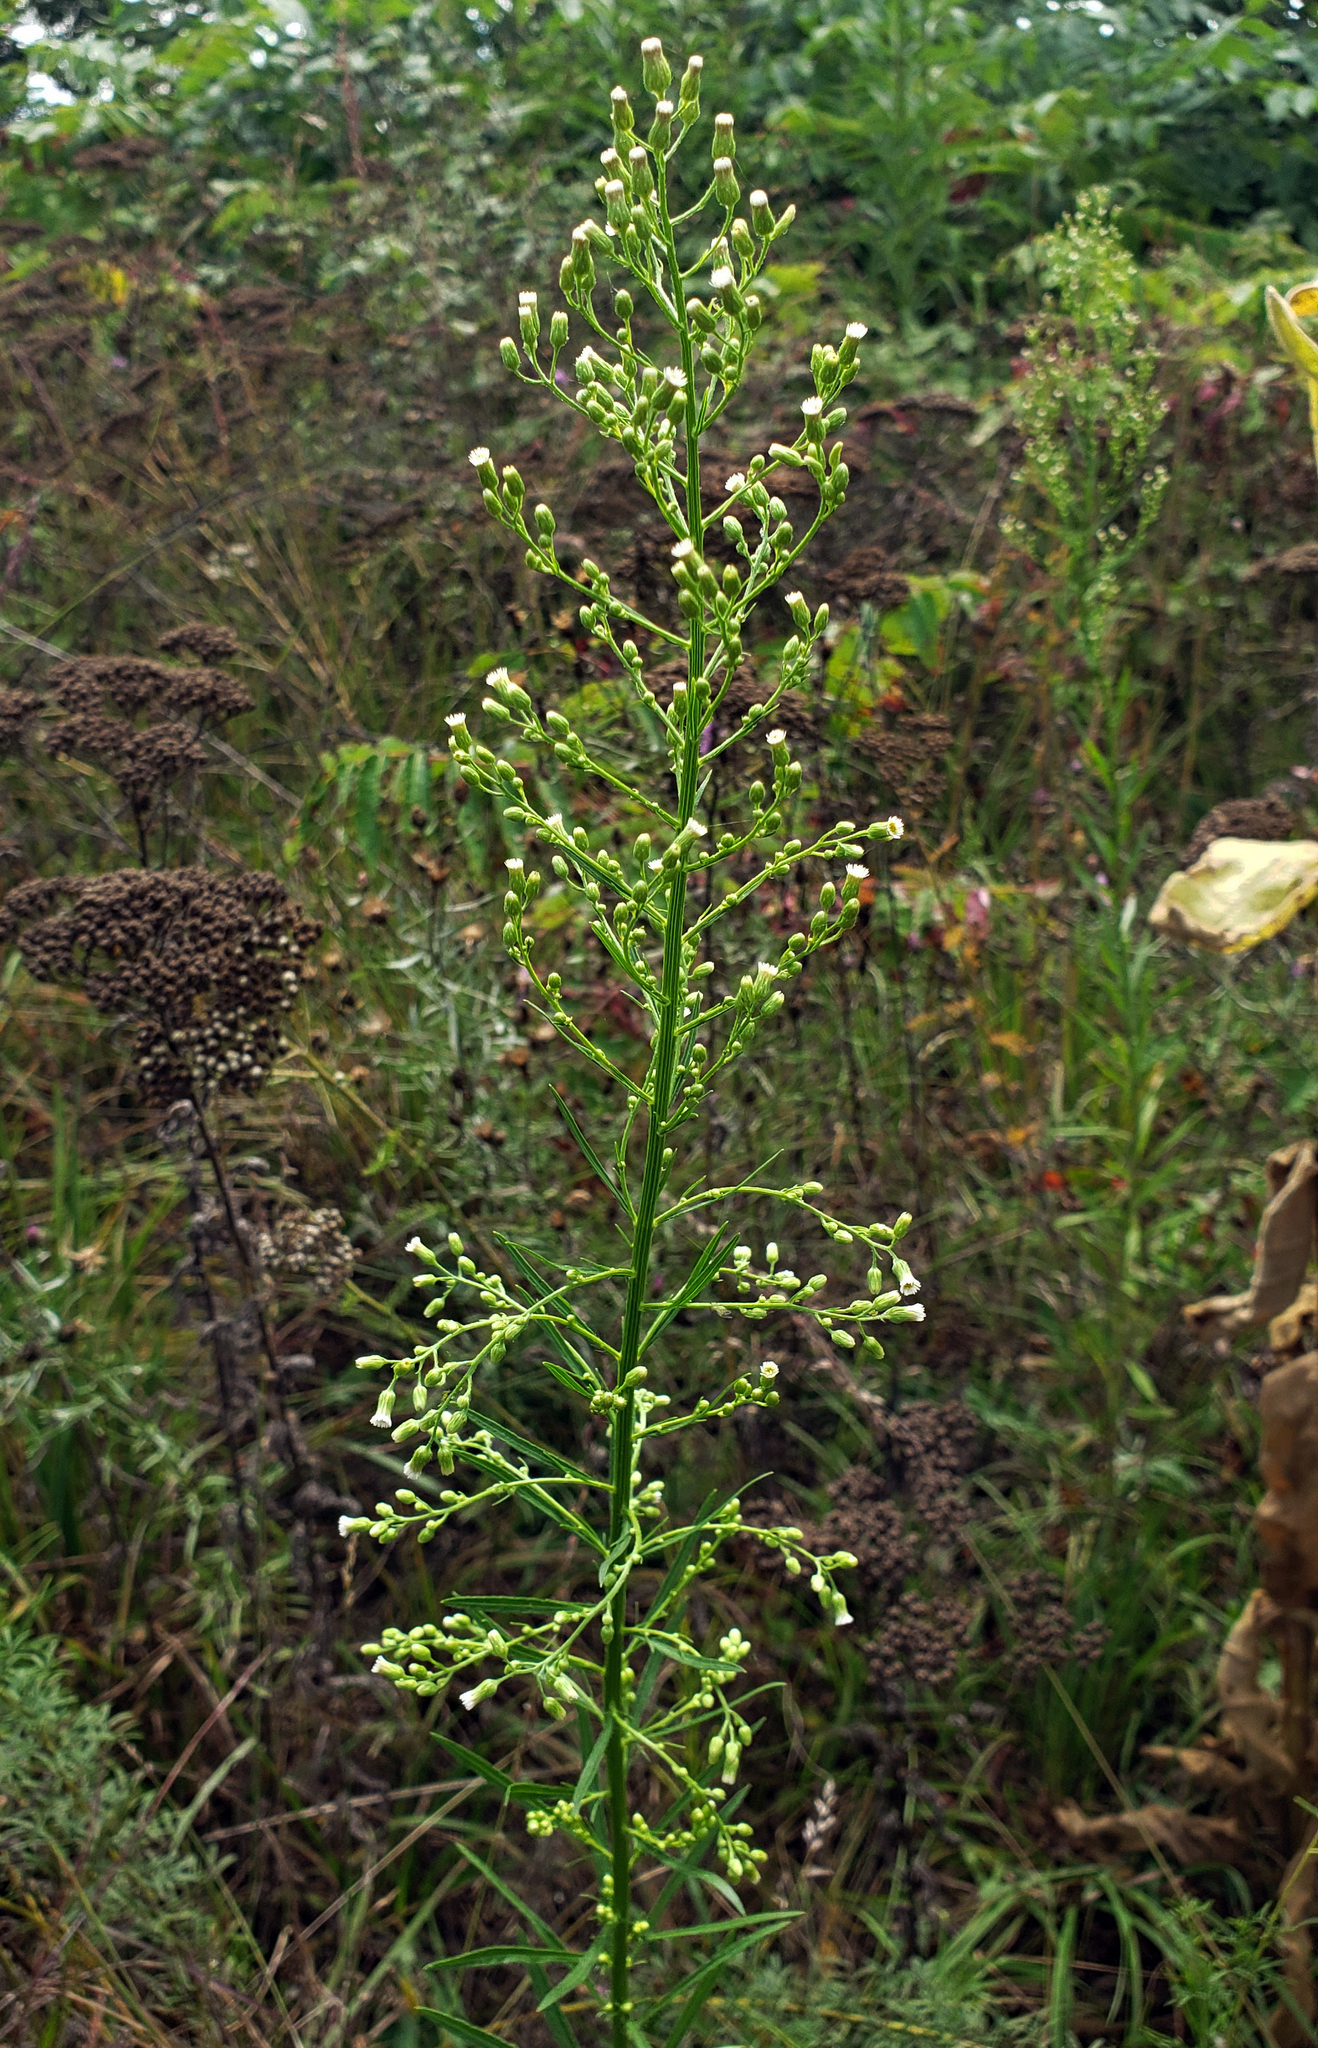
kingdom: Plantae
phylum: Tracheophyta
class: Magnoliopsida
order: Asterales
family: Asteraceae
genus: Erigeron
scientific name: Erigeron canadensis
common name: Canadian fleabane
